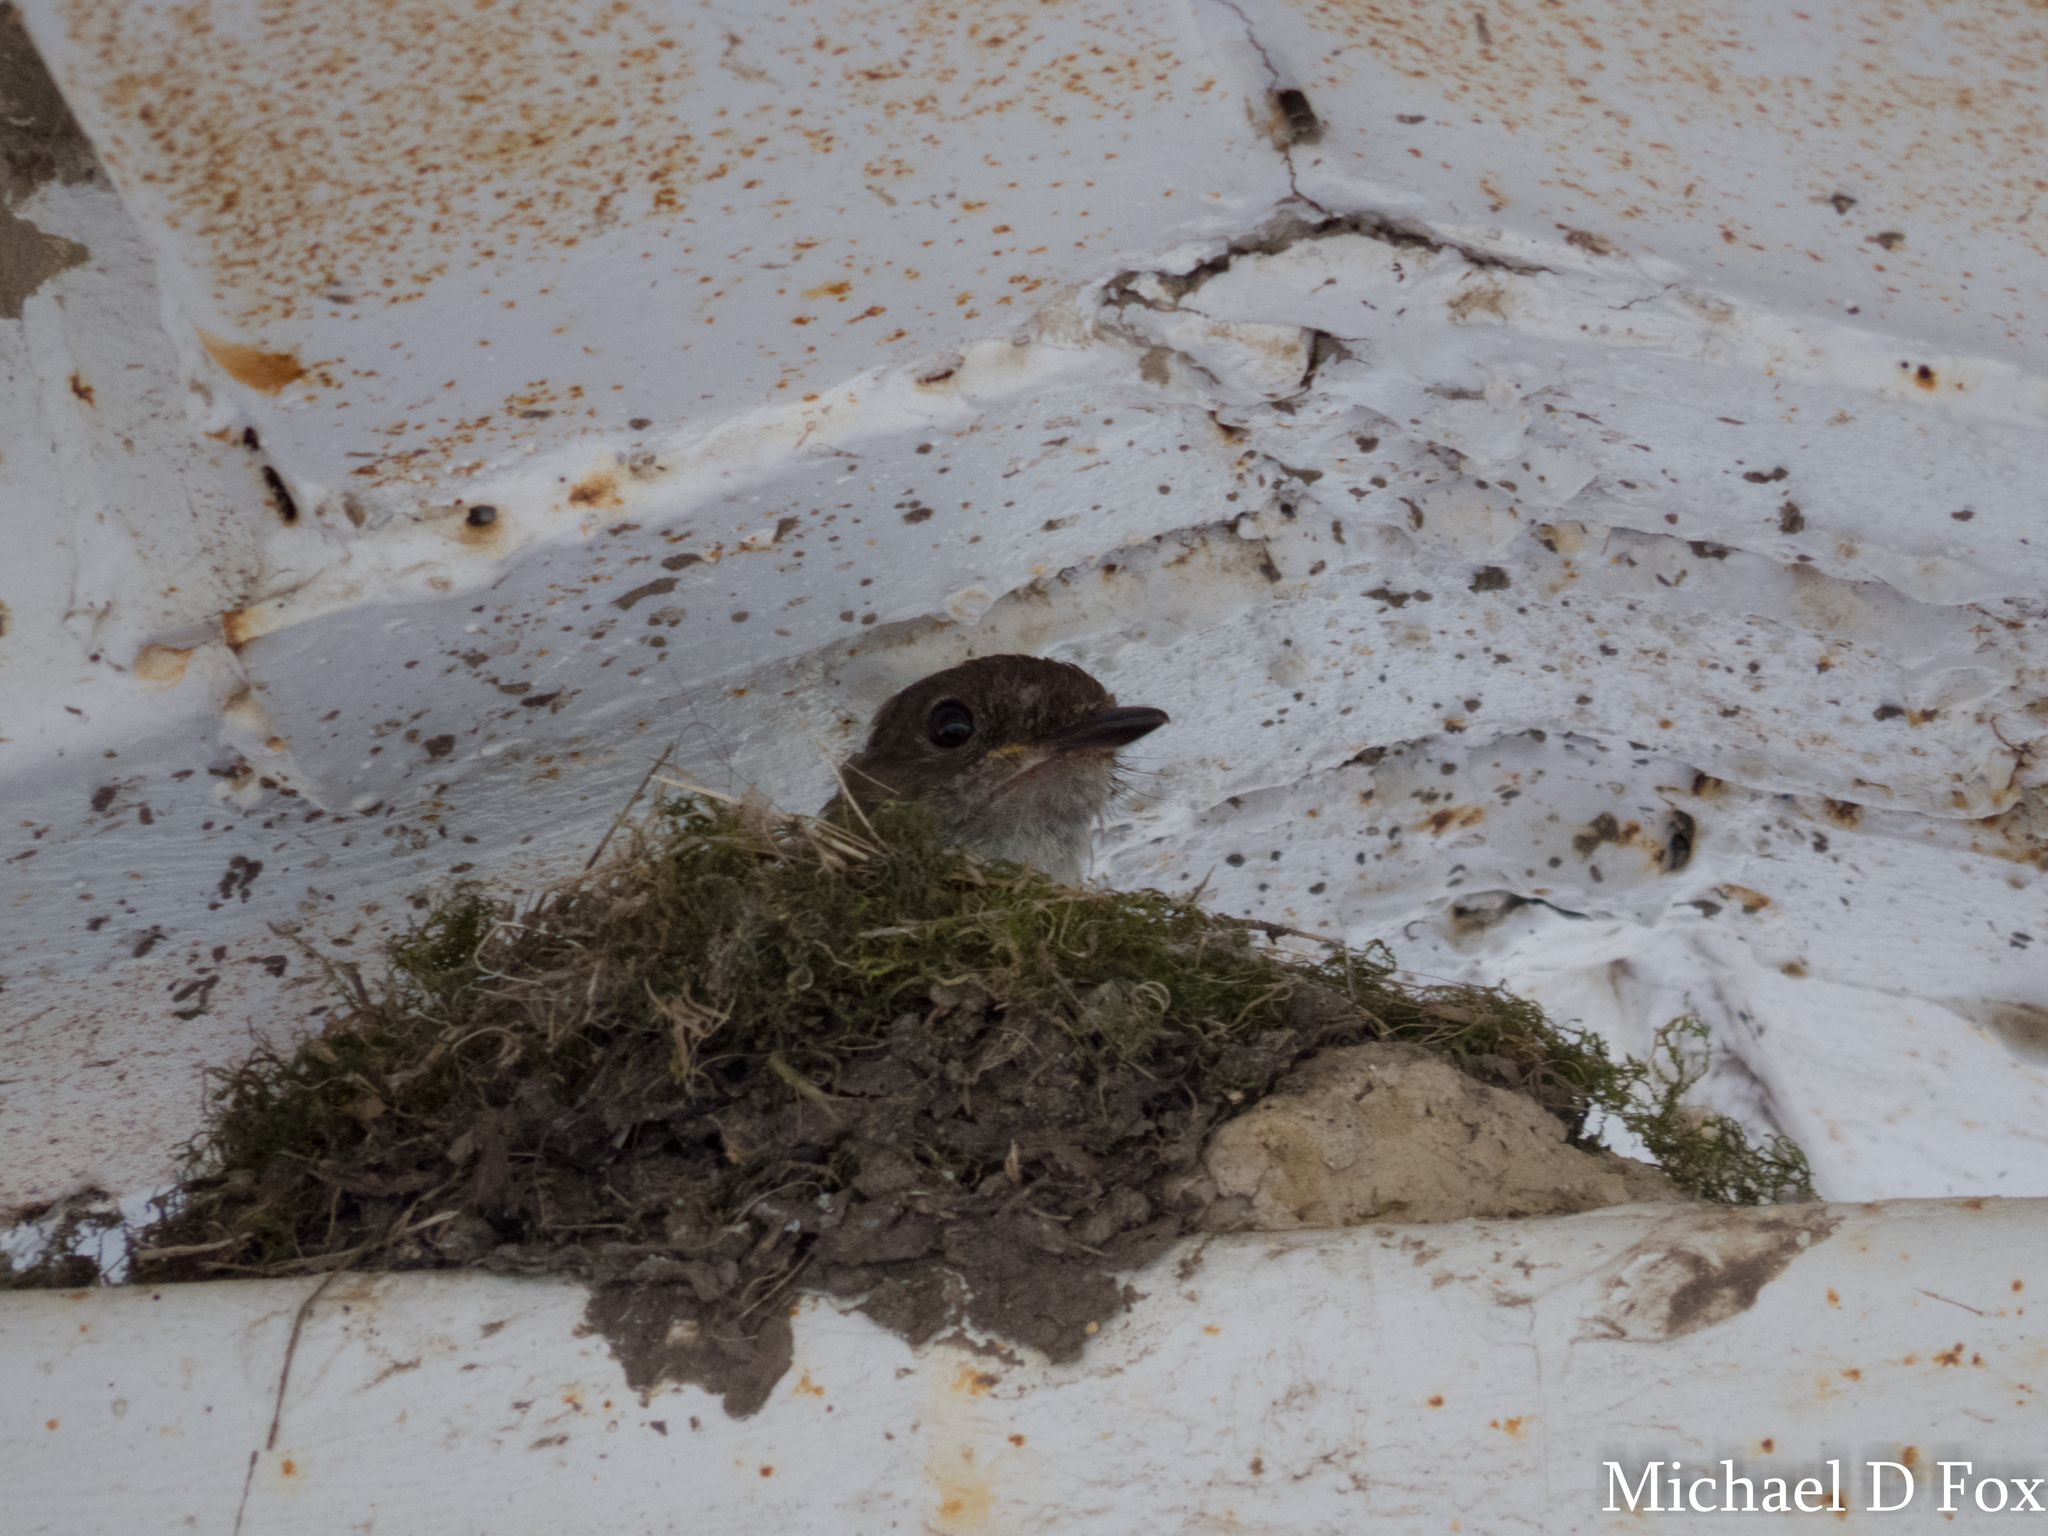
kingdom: Animalia
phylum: Chordata
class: Aves
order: Passeriformes
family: Tyrannidae
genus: Sayornis
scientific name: Sayornis phoebe
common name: Eastern phoebe
